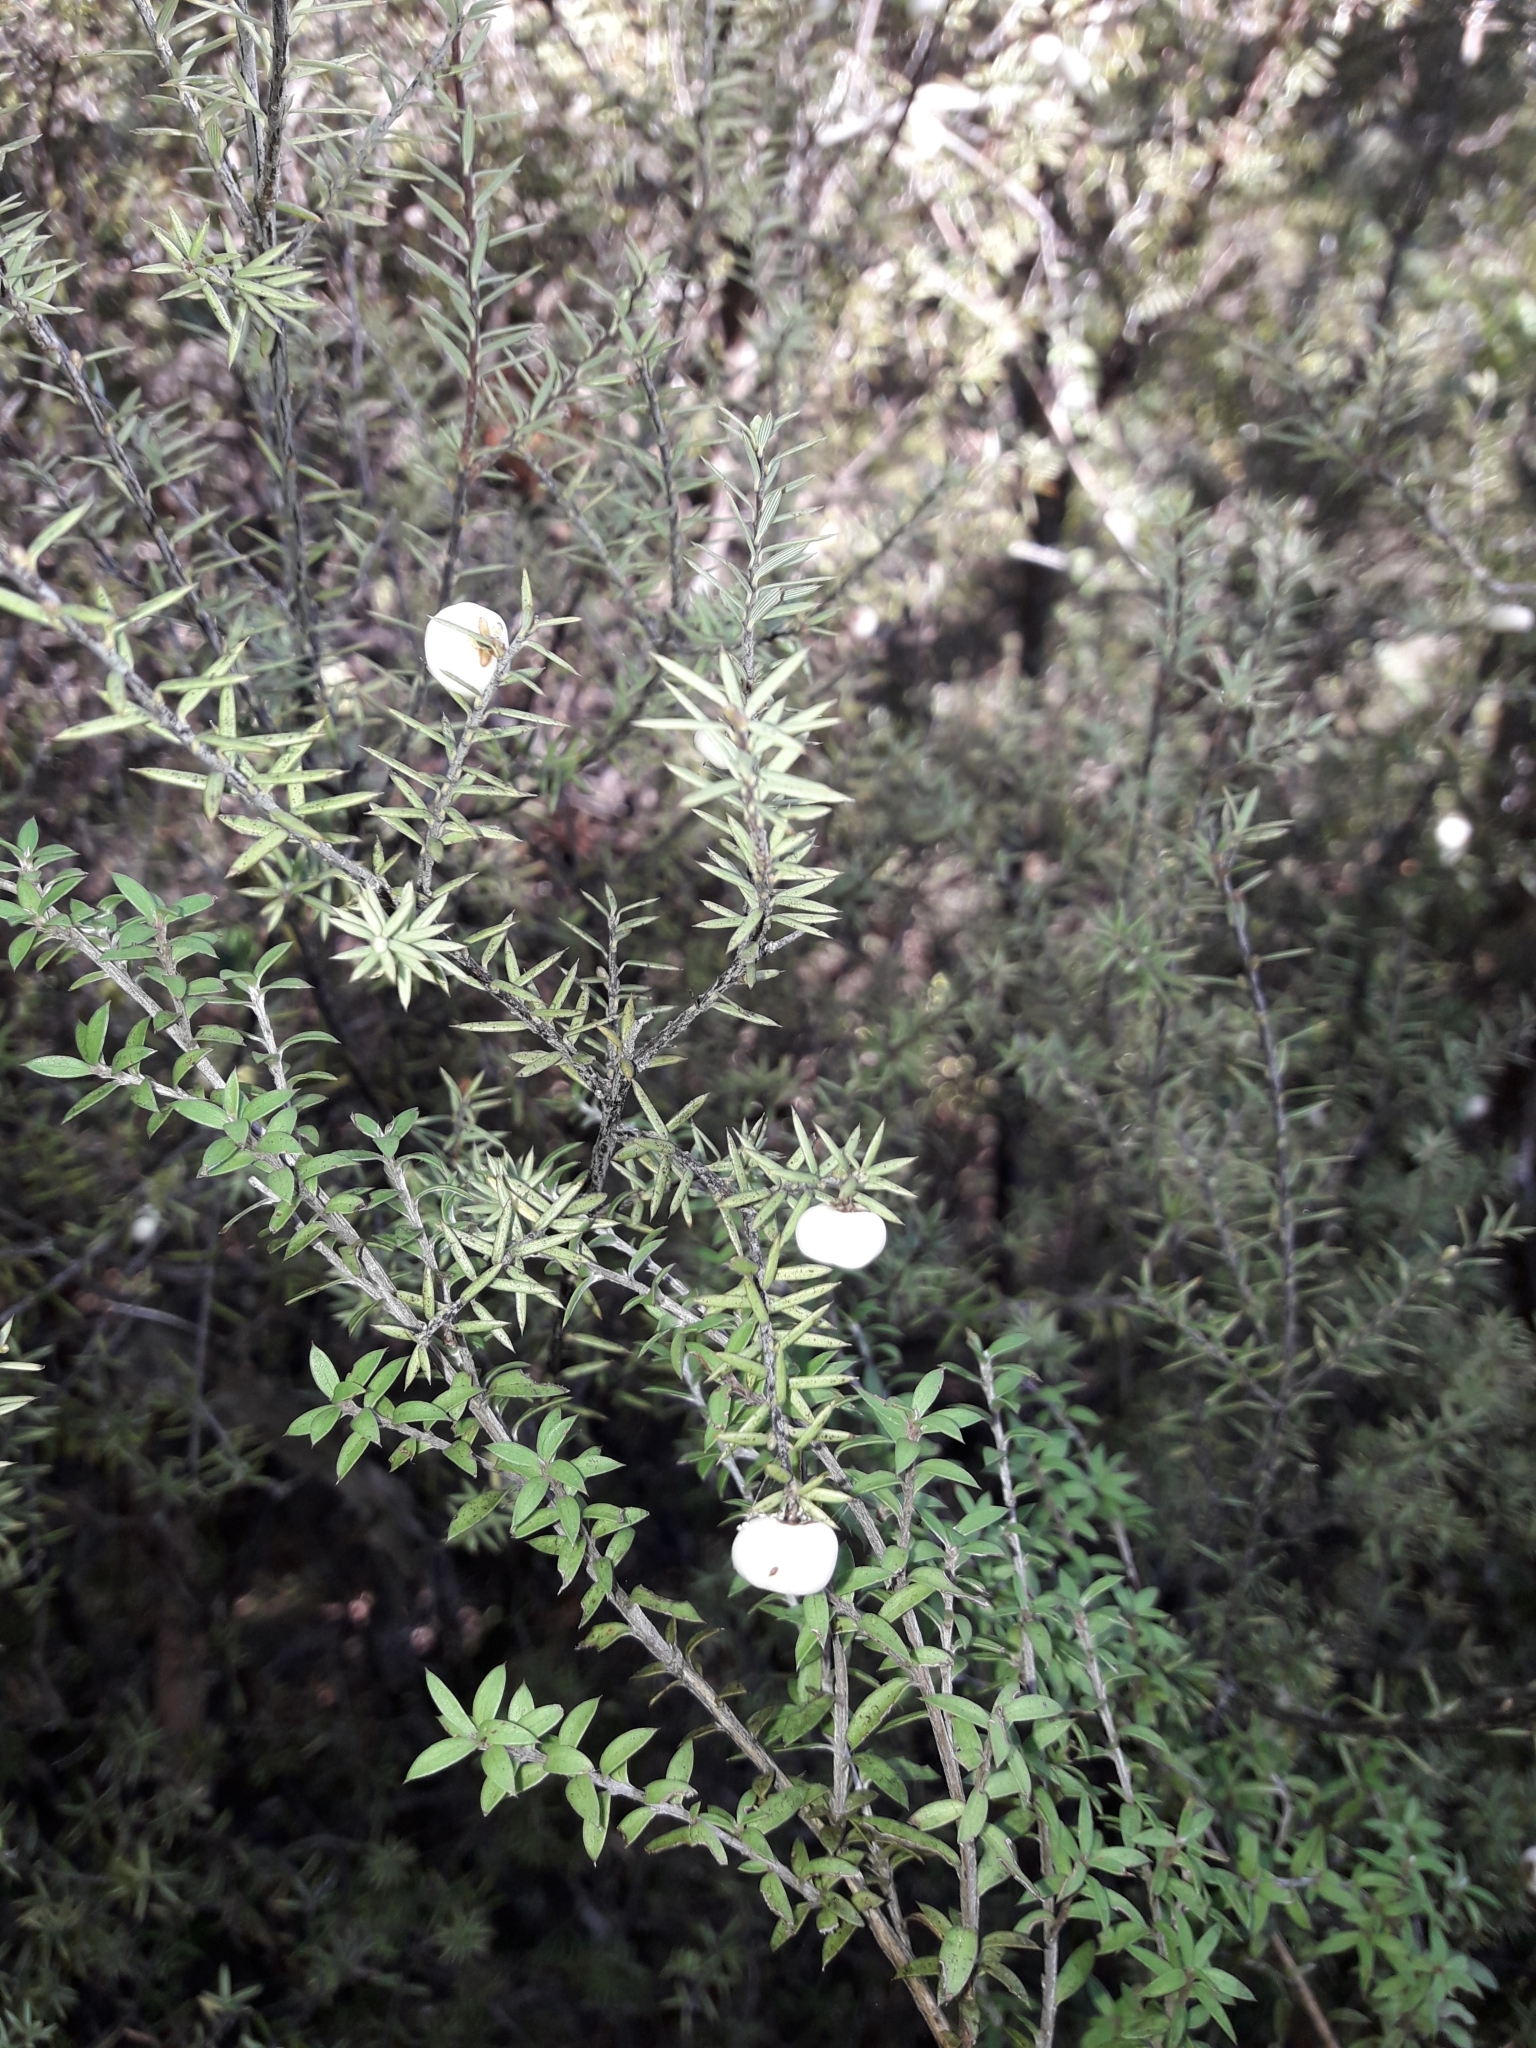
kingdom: Plantae
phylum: Tracheophyta
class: Magnoliopsida
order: Ericales
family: Ericaceae
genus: Leptecophylla
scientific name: Leptecophylla juniperina
